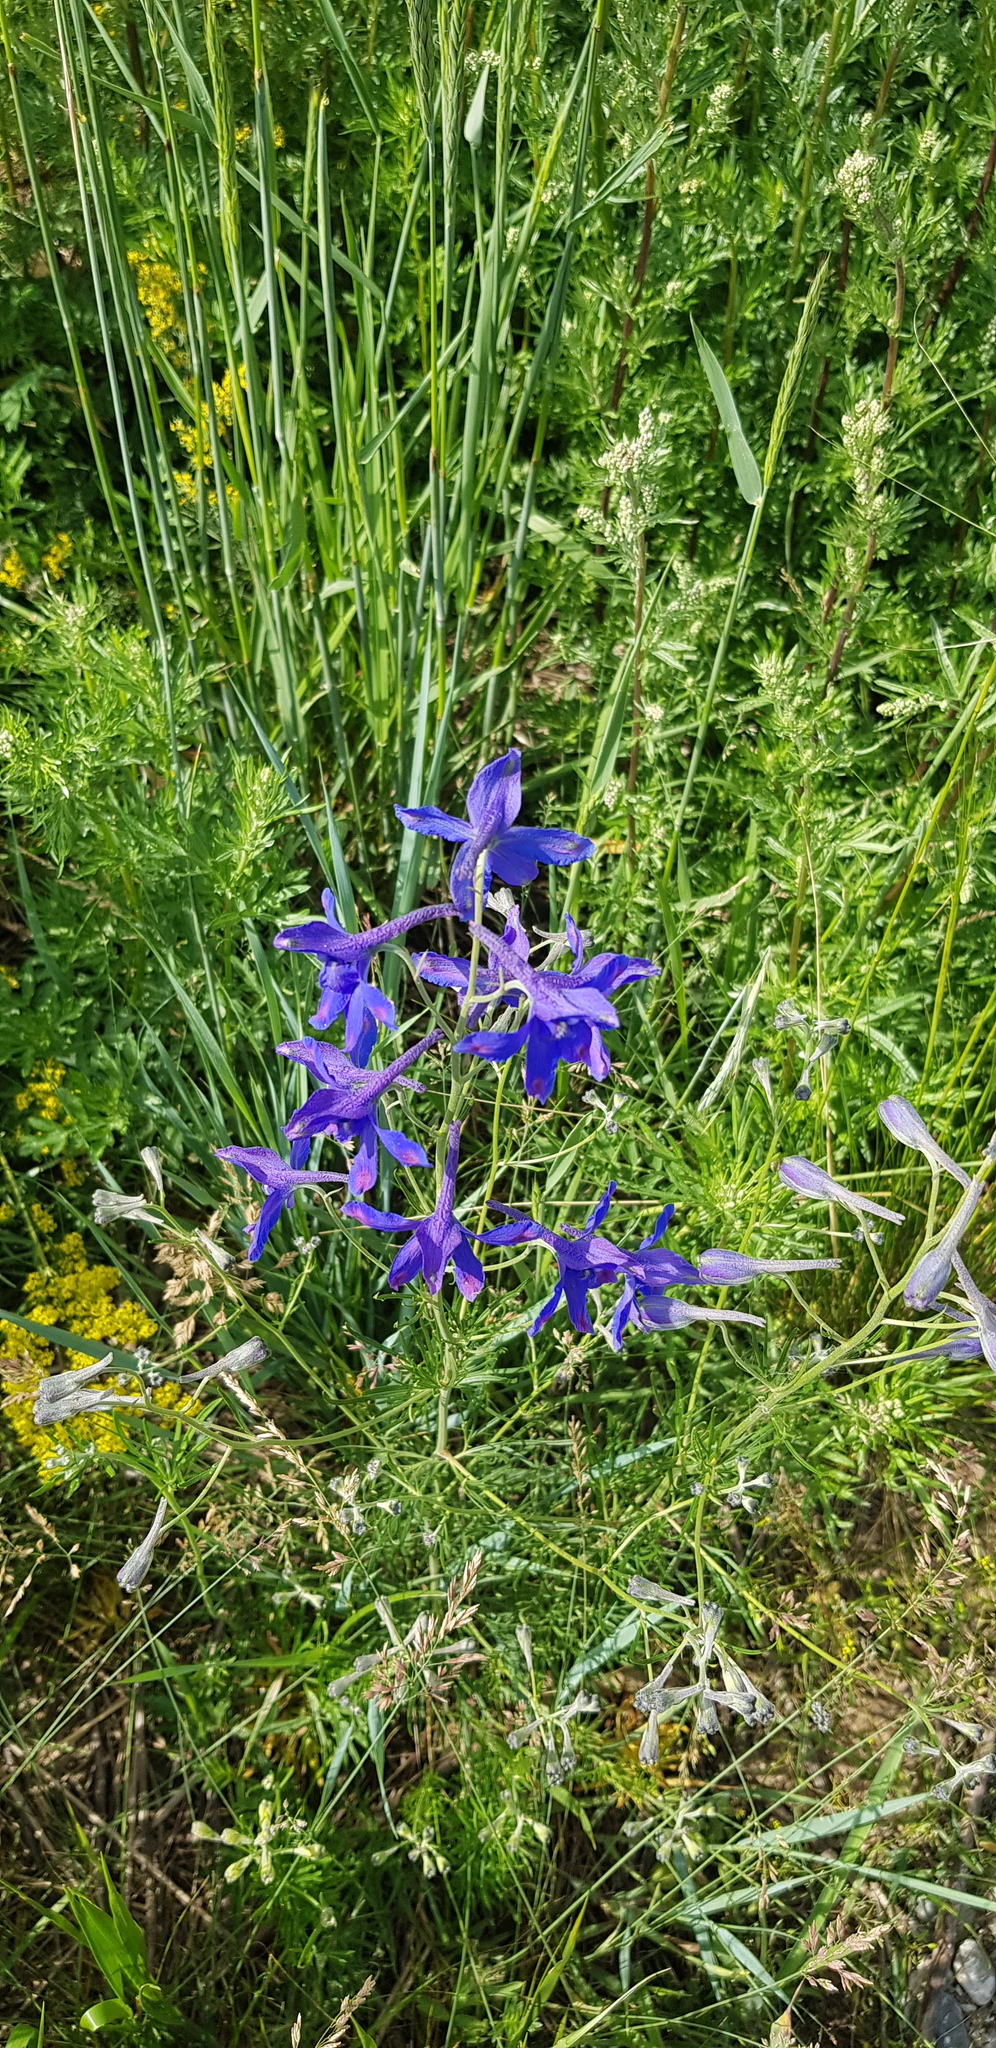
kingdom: Plantae
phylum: Tracheophyta
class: Magnoliopsida
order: Ranunculales
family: Ranunculaceae
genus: Delphinium
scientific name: Delphinium grandiflorum
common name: Siberian larkspur
